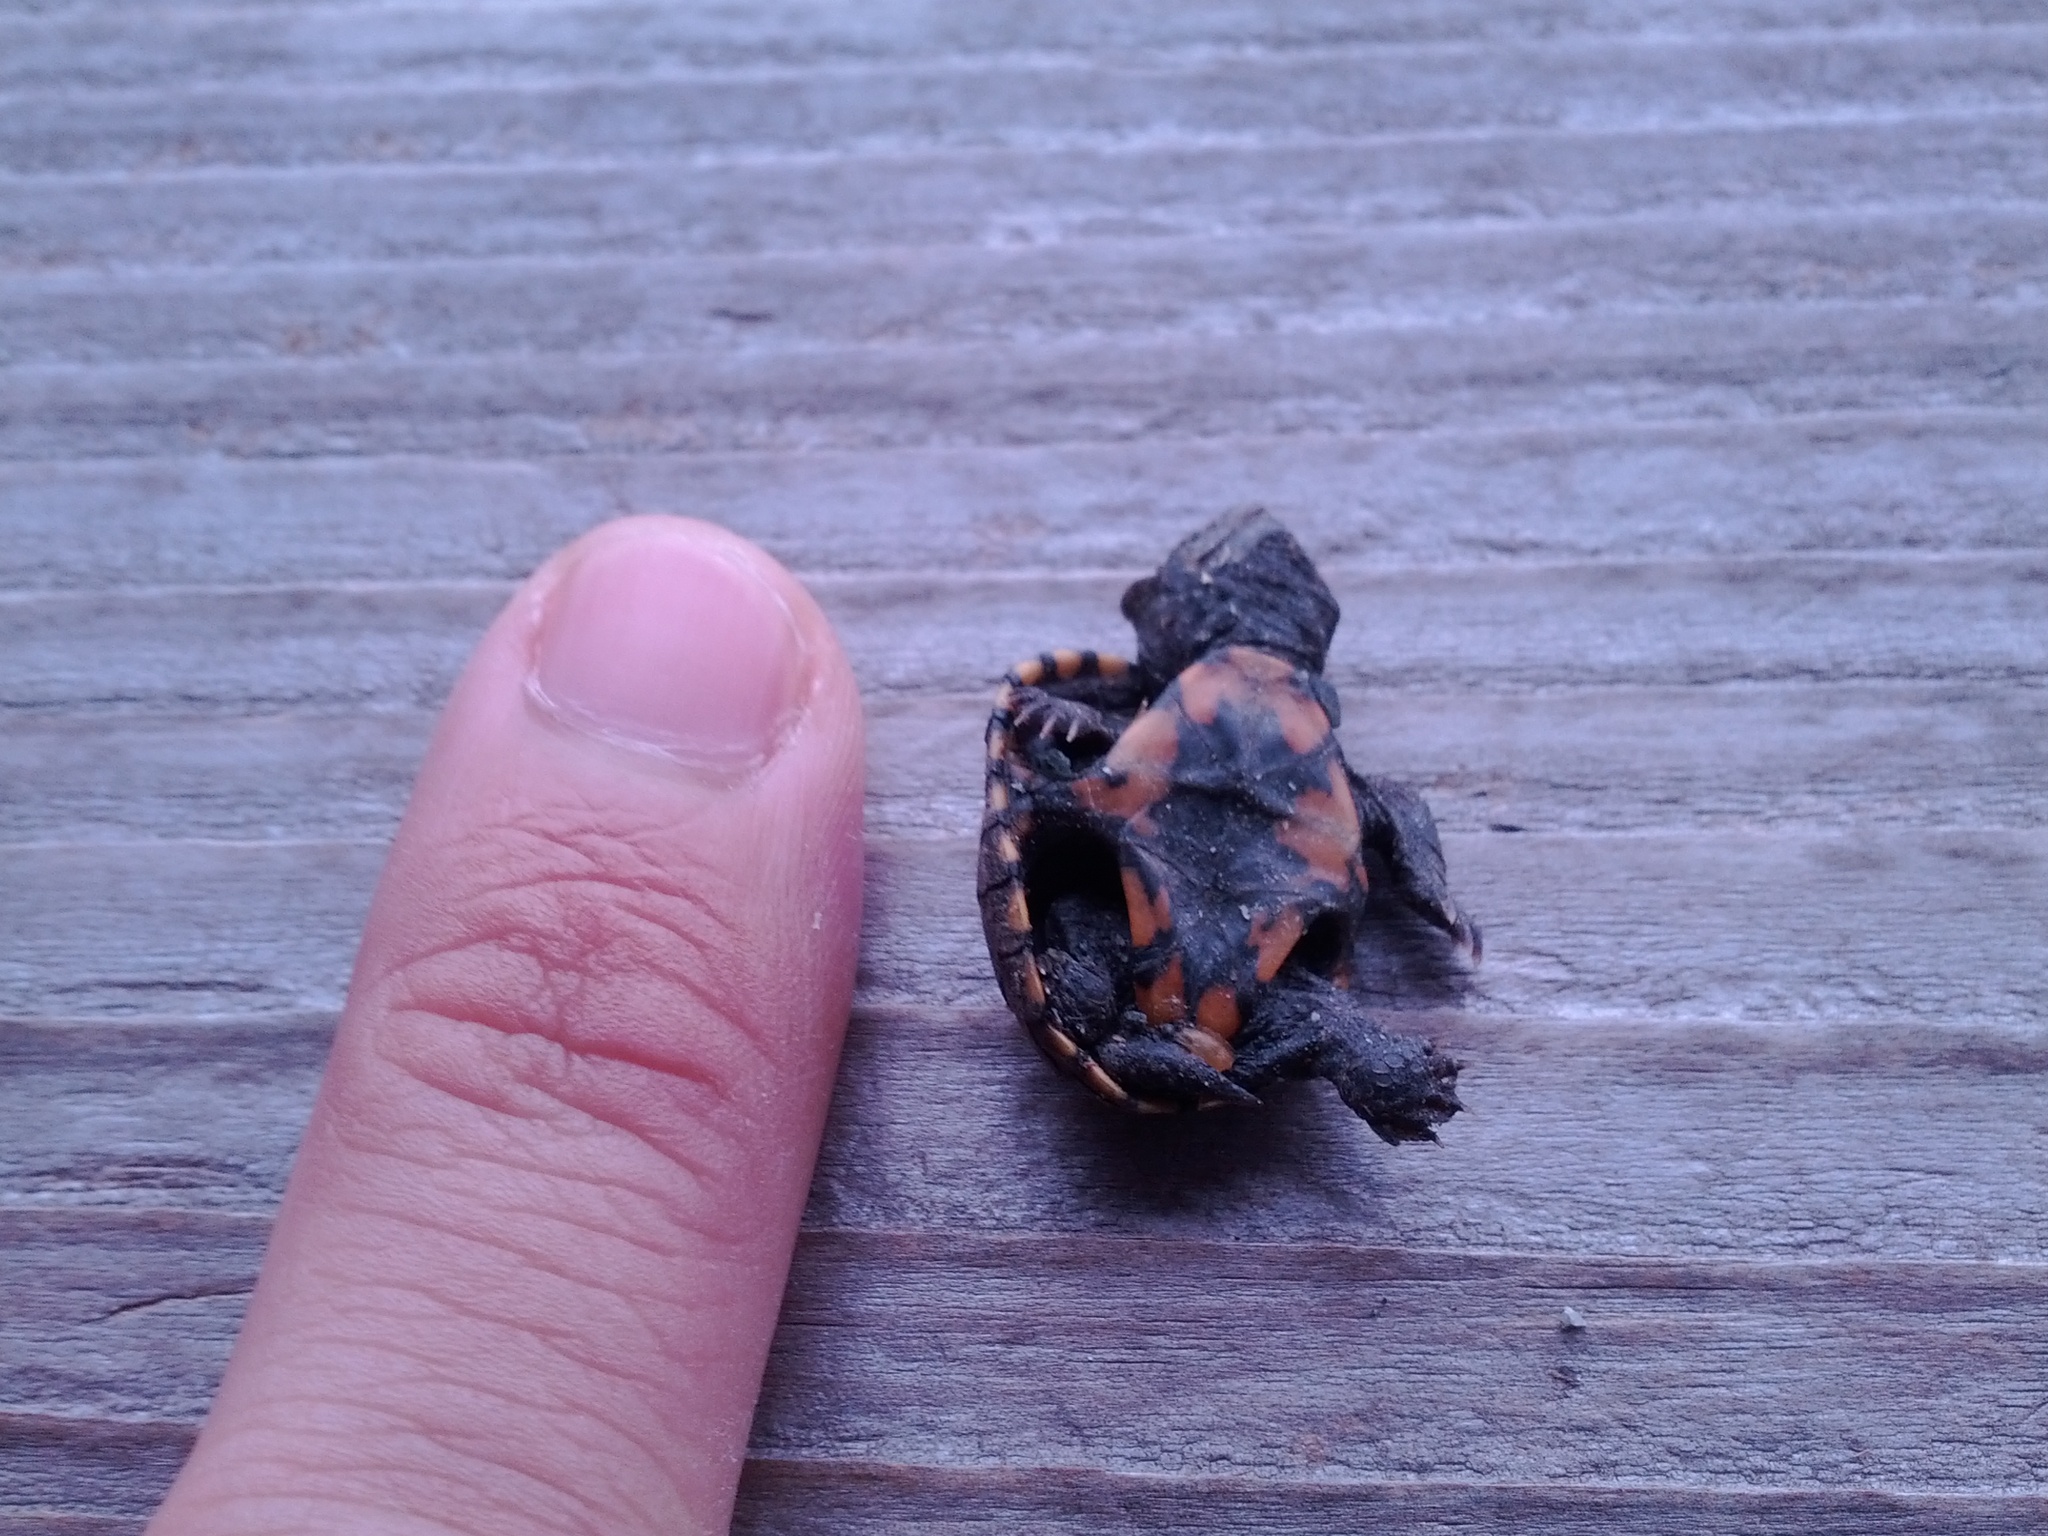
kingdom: Animalia
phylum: Chordata
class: Testudines
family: Kinosternidae
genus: Kinosternon
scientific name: Kinosternon subrubrum
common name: Eastern mud turtle
